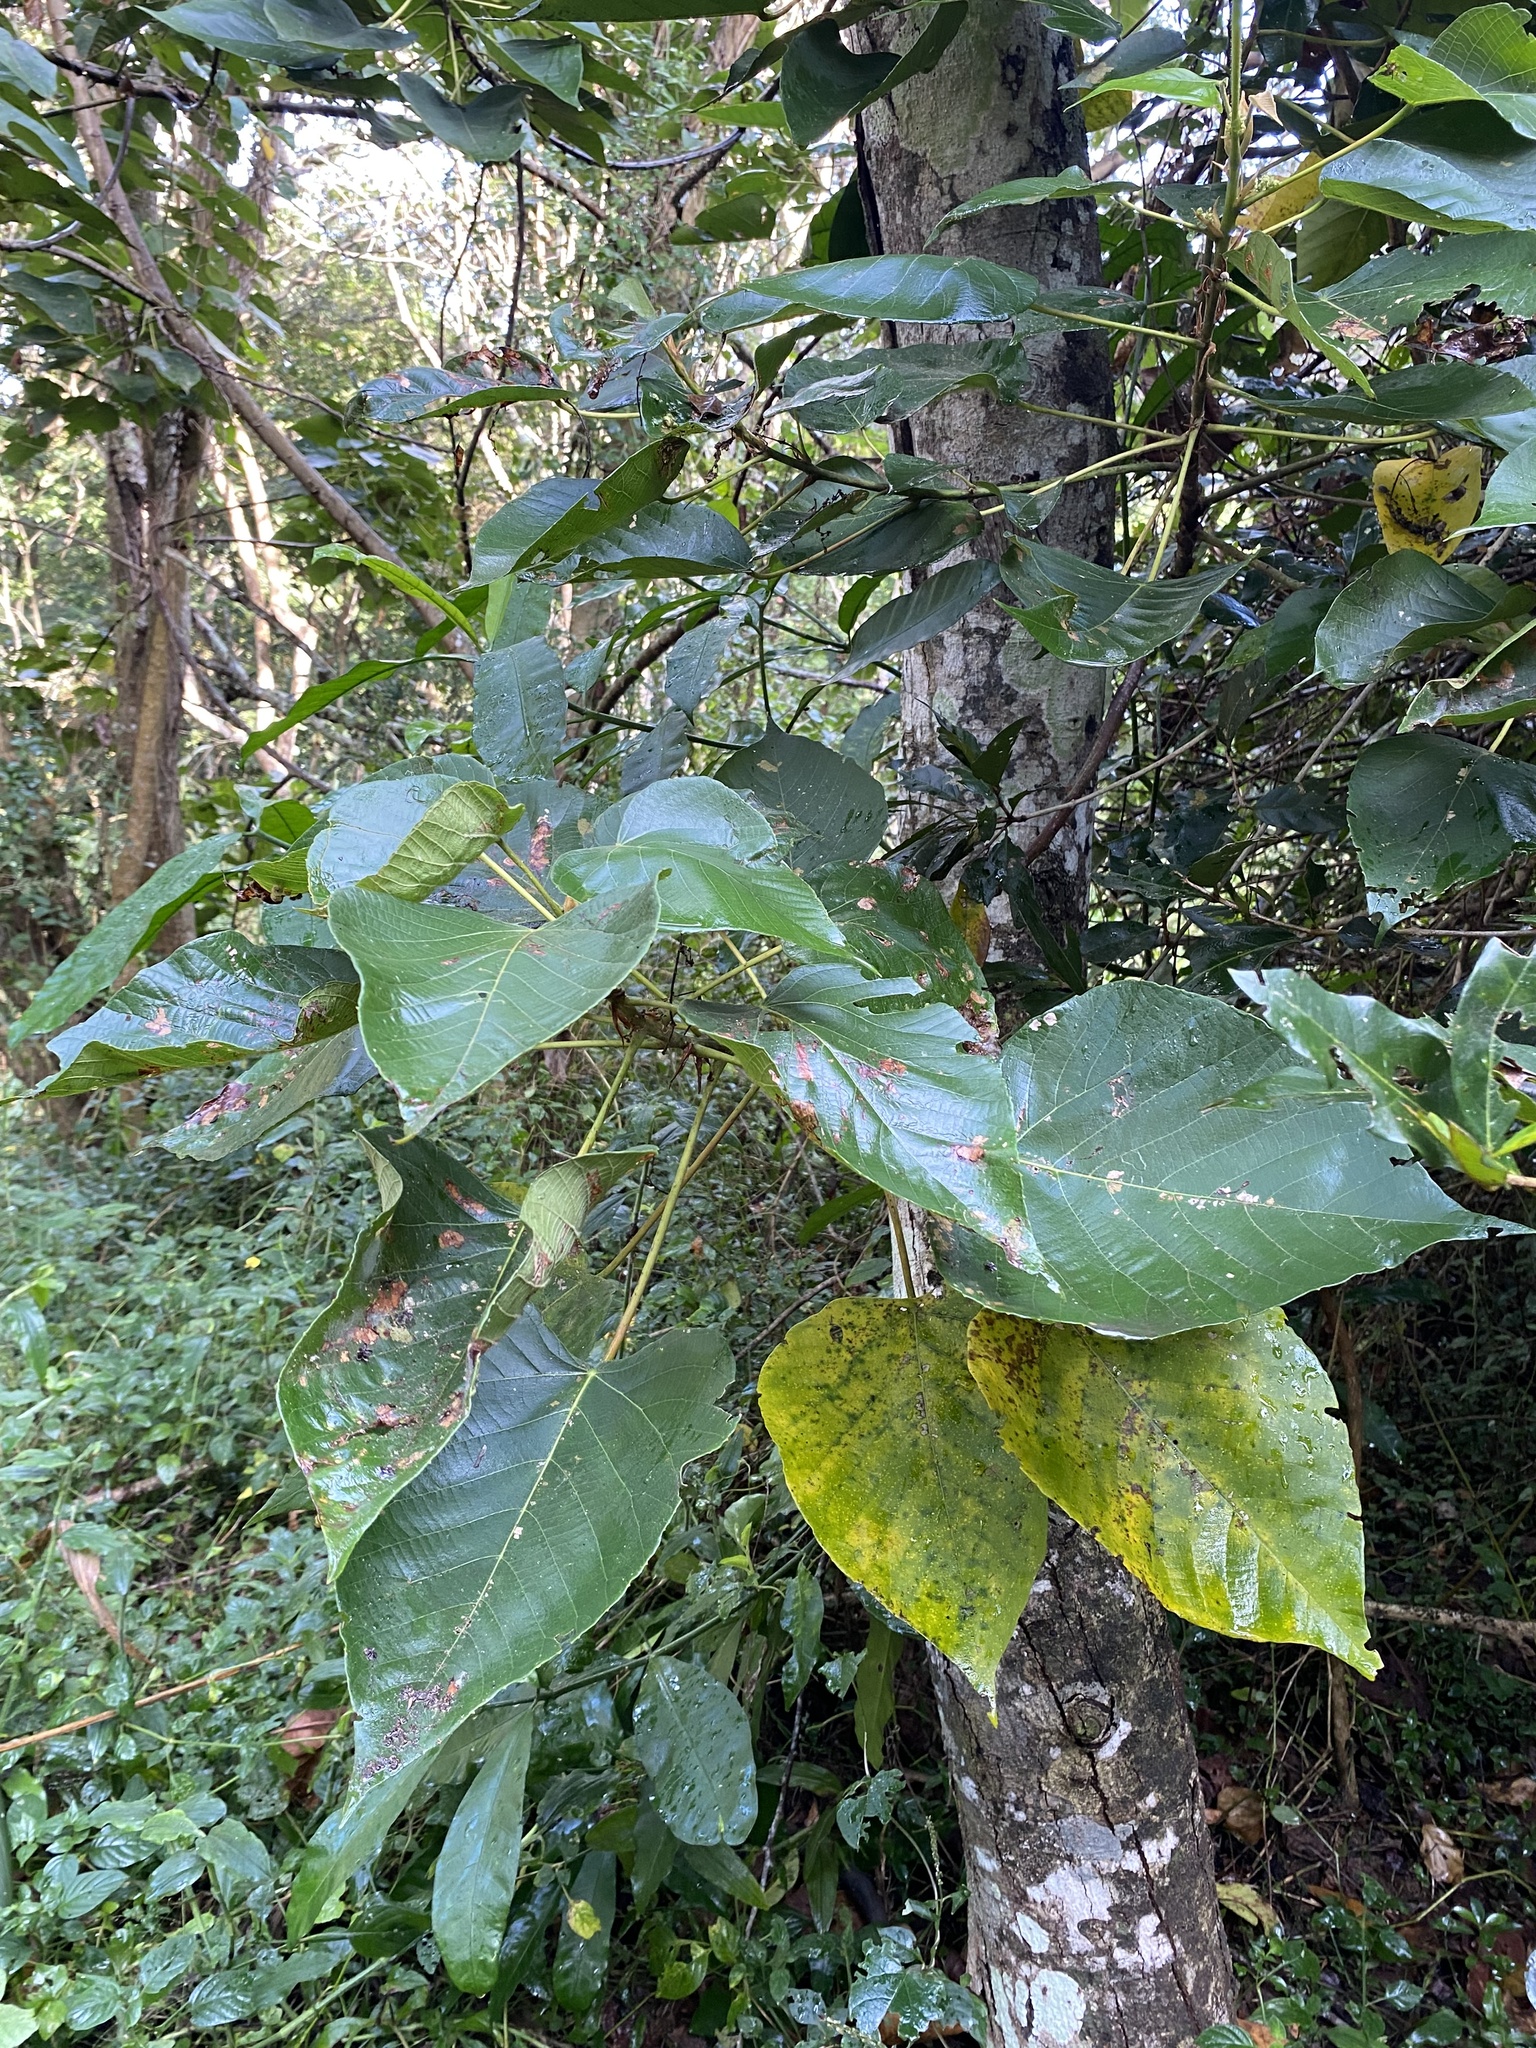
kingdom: Plantae
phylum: Tracheophyta
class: Magnoliopsida
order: Malpighiales
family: Euphorbiaceae
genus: Macaranga
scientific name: Macaranga capensis
